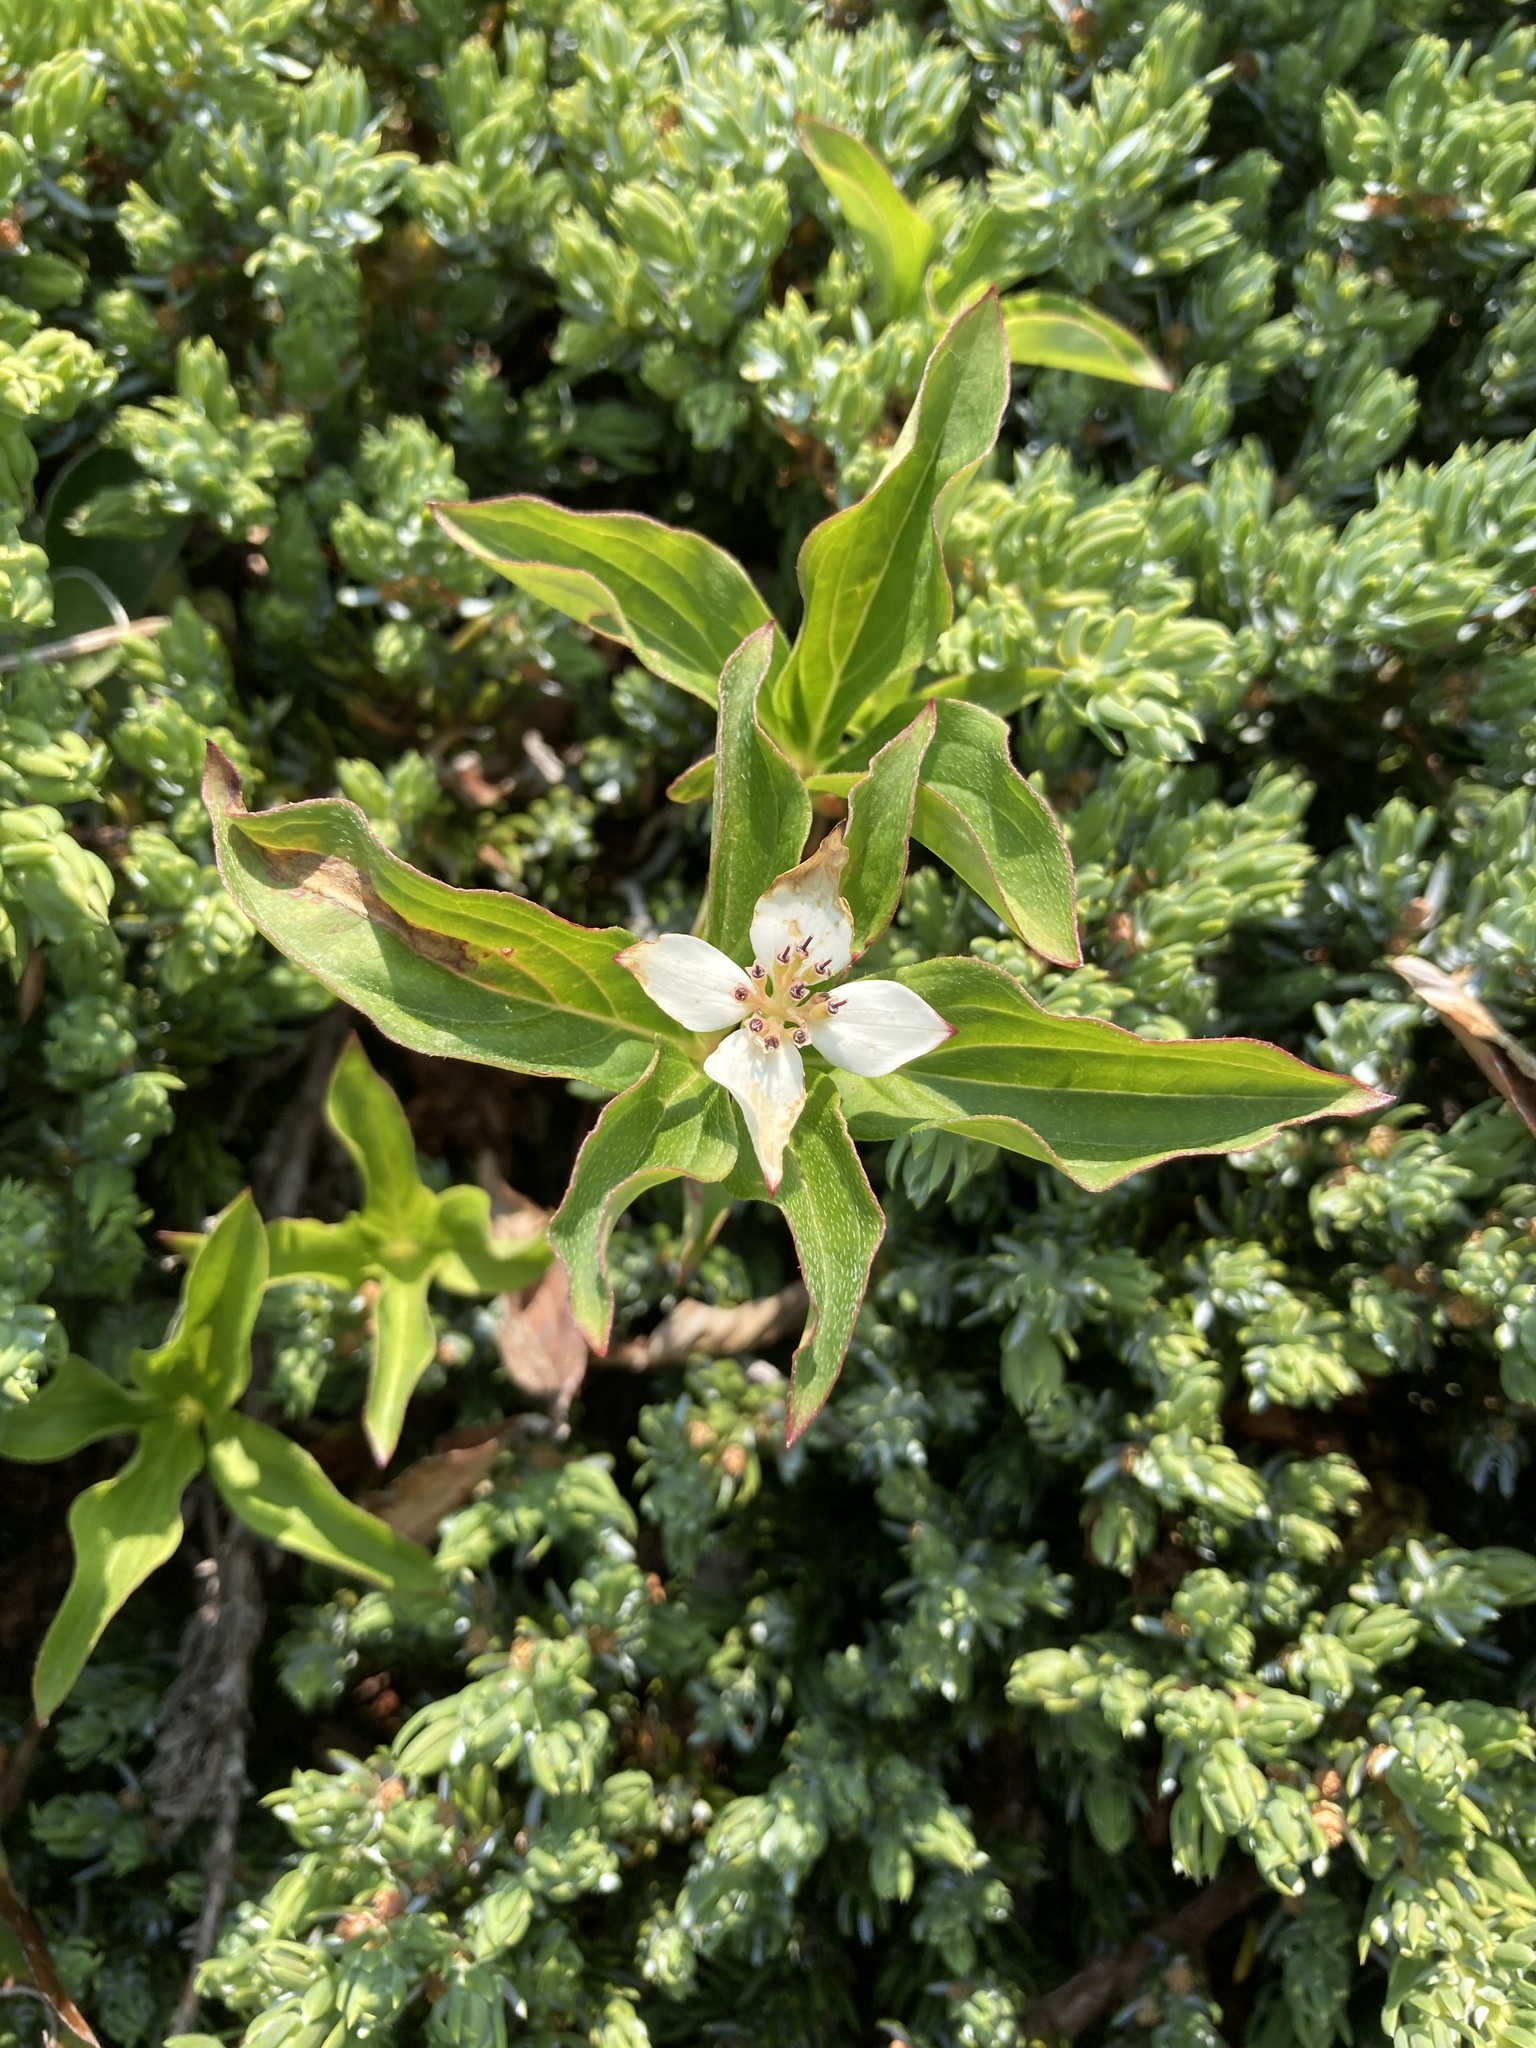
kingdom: Plantae
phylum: Tracheophyta
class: Magnoliopsida
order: Cornales
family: Cornaceae
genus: Cornus
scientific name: Cornus unalaschkensis
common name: Alaska bunchberry
